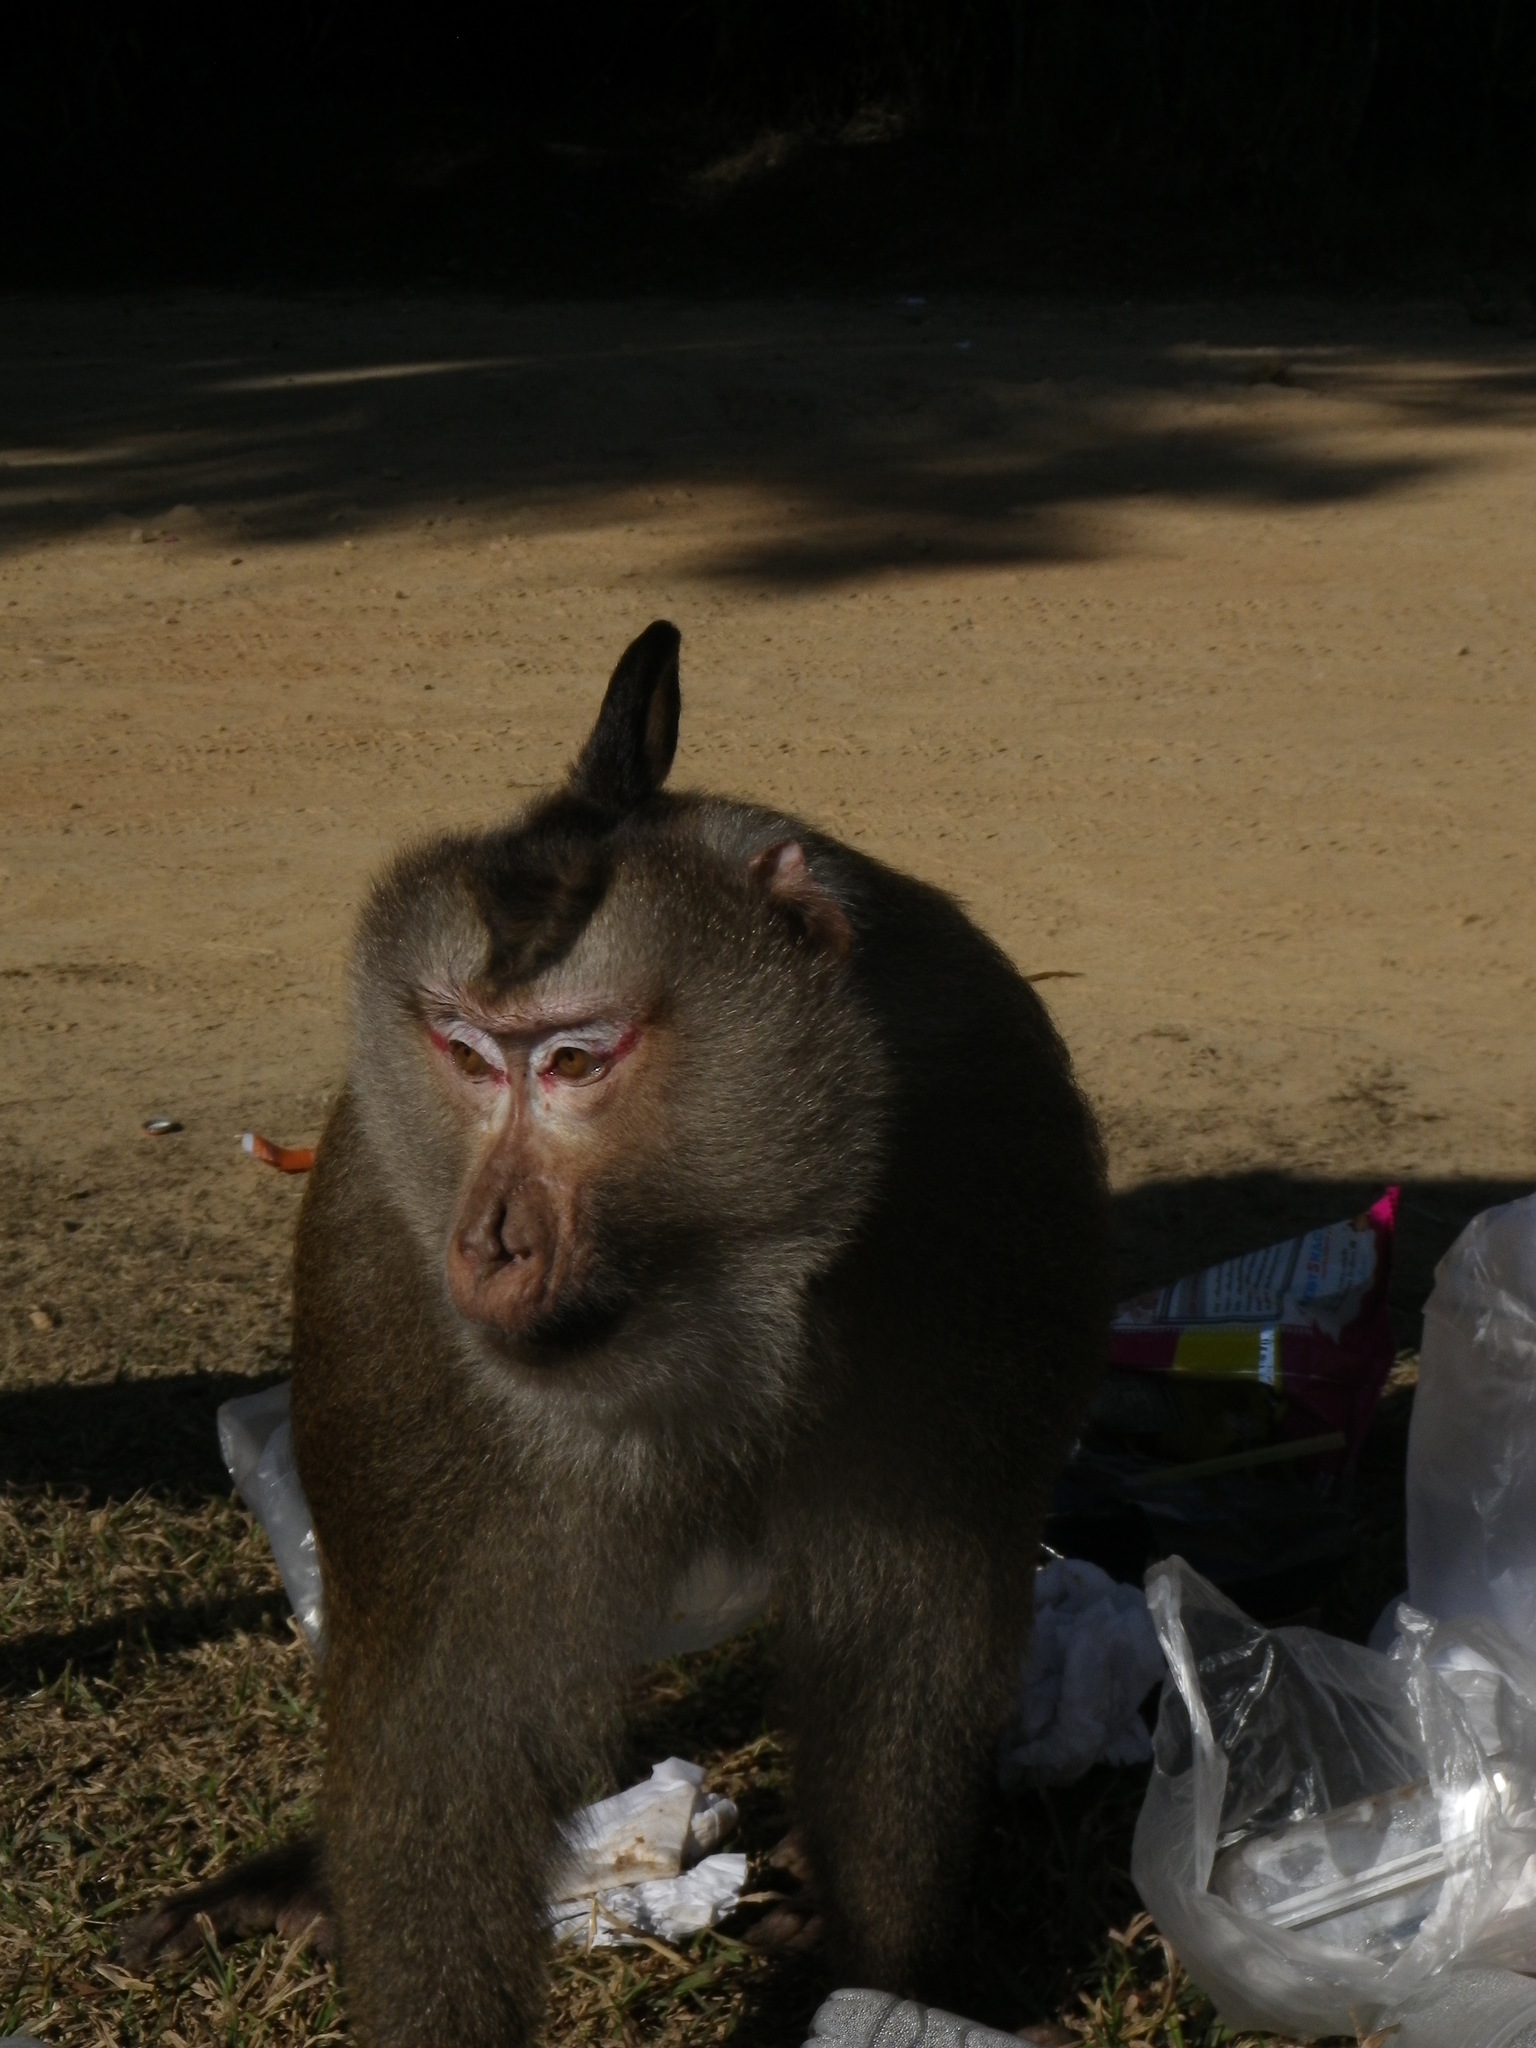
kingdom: Animalia
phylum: Chordata
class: Mammalia
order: Primates
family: Cercopithecidae
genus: Macaca
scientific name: Macaca leonina
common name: Northern pig-tailed macaque
